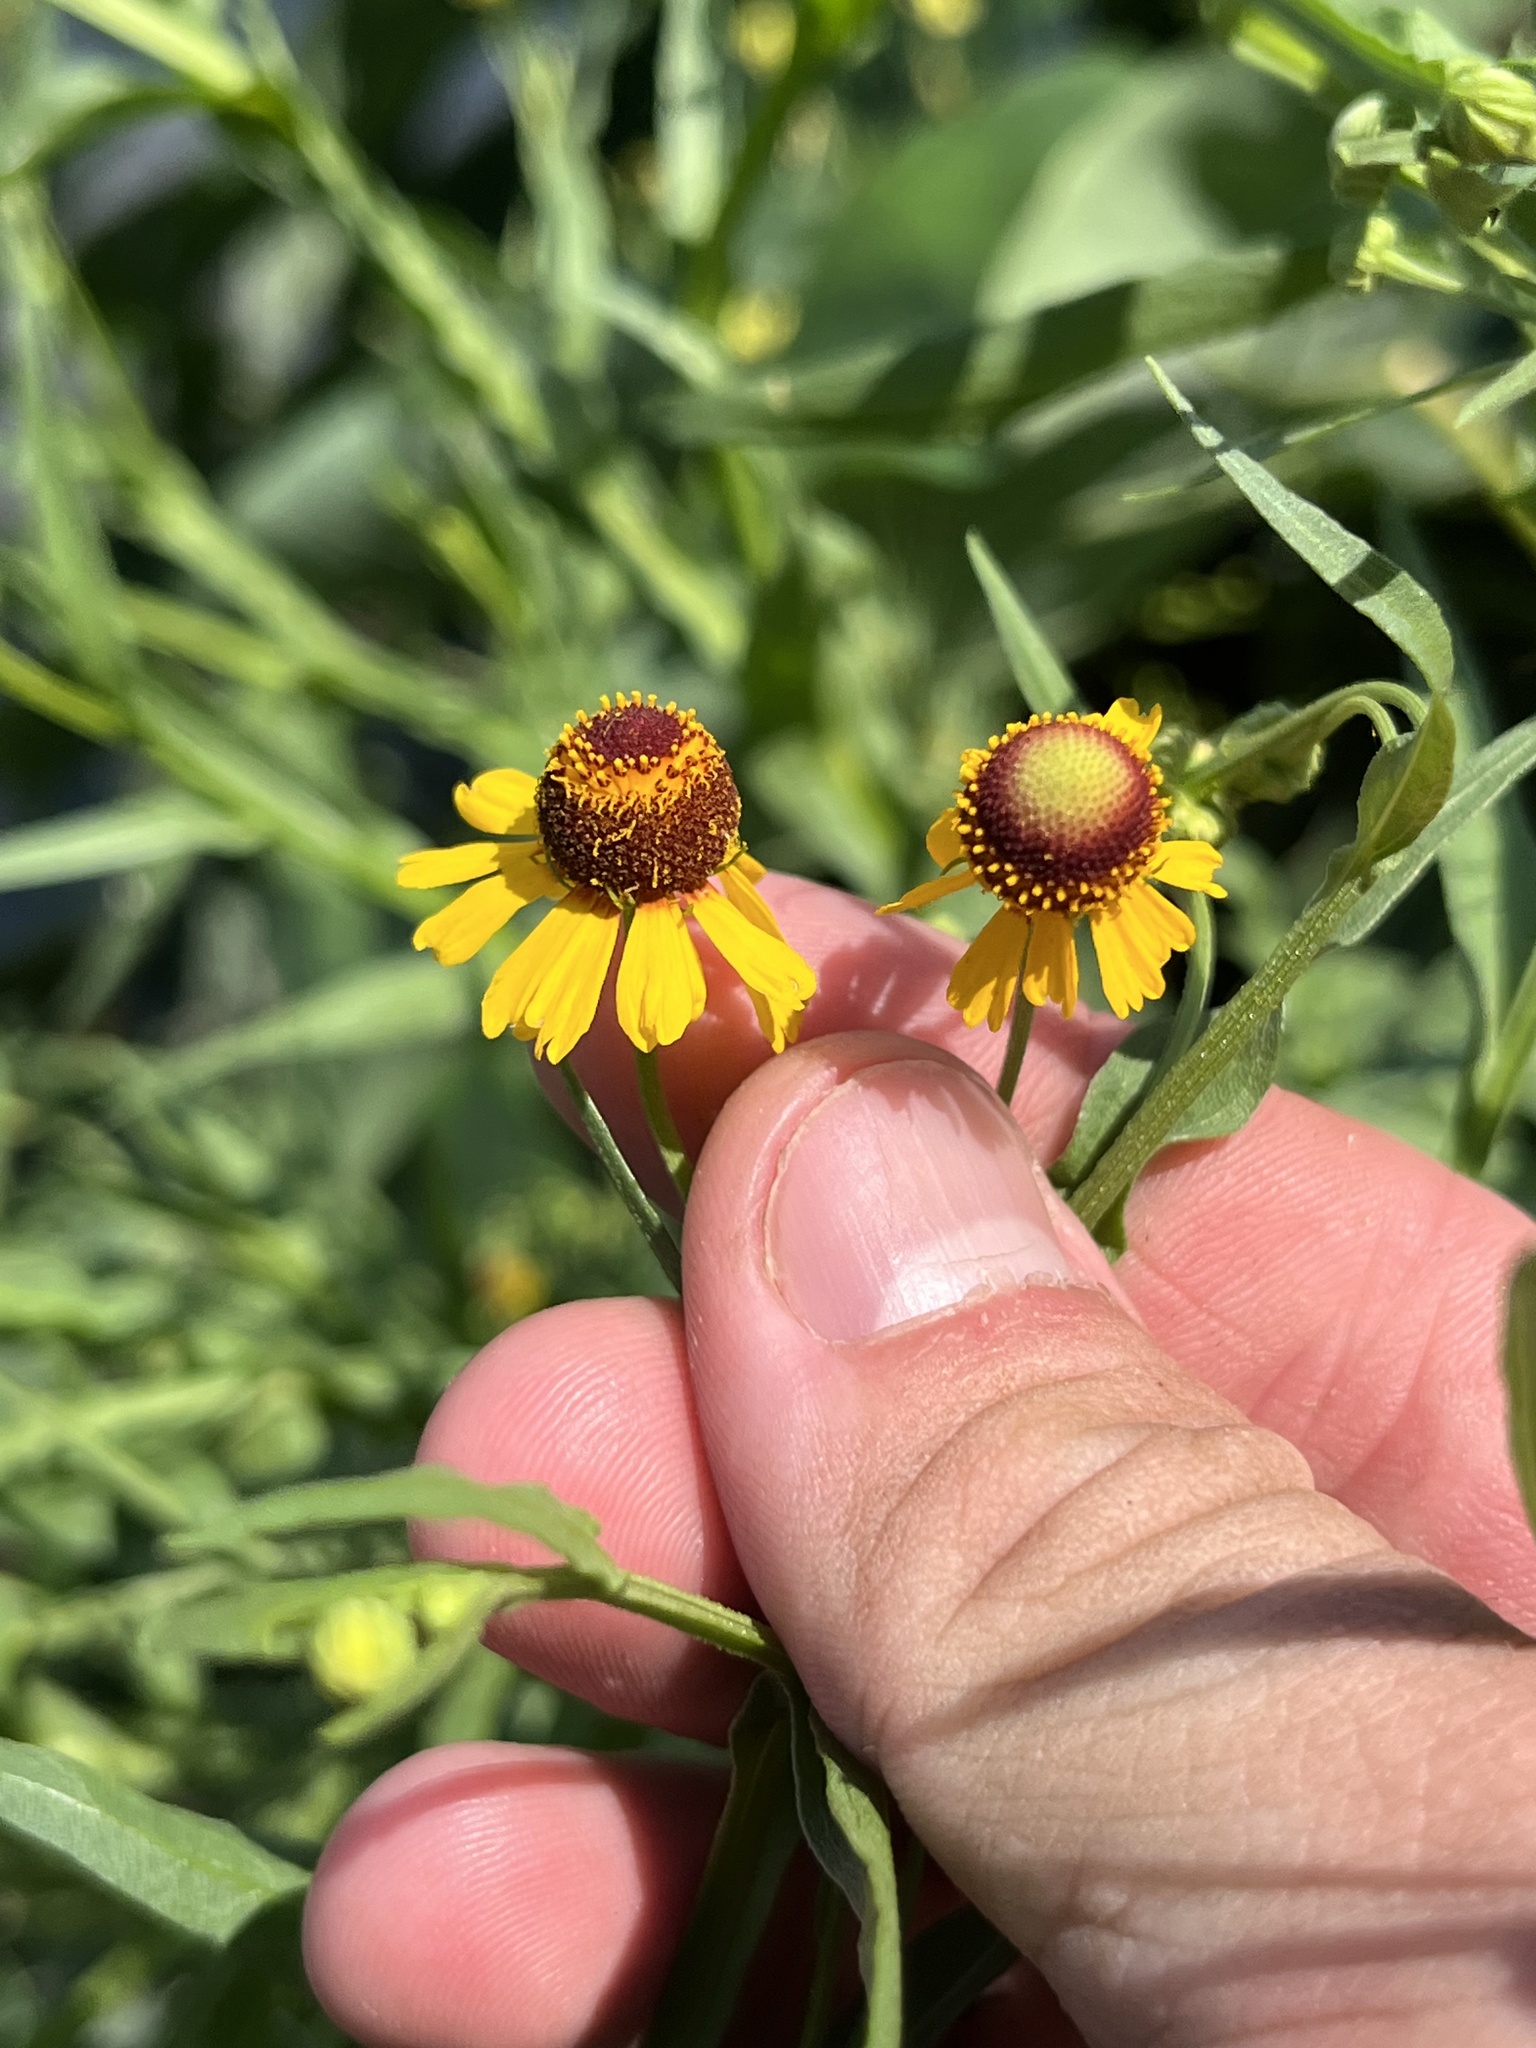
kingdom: Plantae
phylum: Tracheophyta
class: Magnoliopsida
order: Asterales
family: Asteraceae
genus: Helenium
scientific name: Helenium elegans
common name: Pretty sneezeweed
